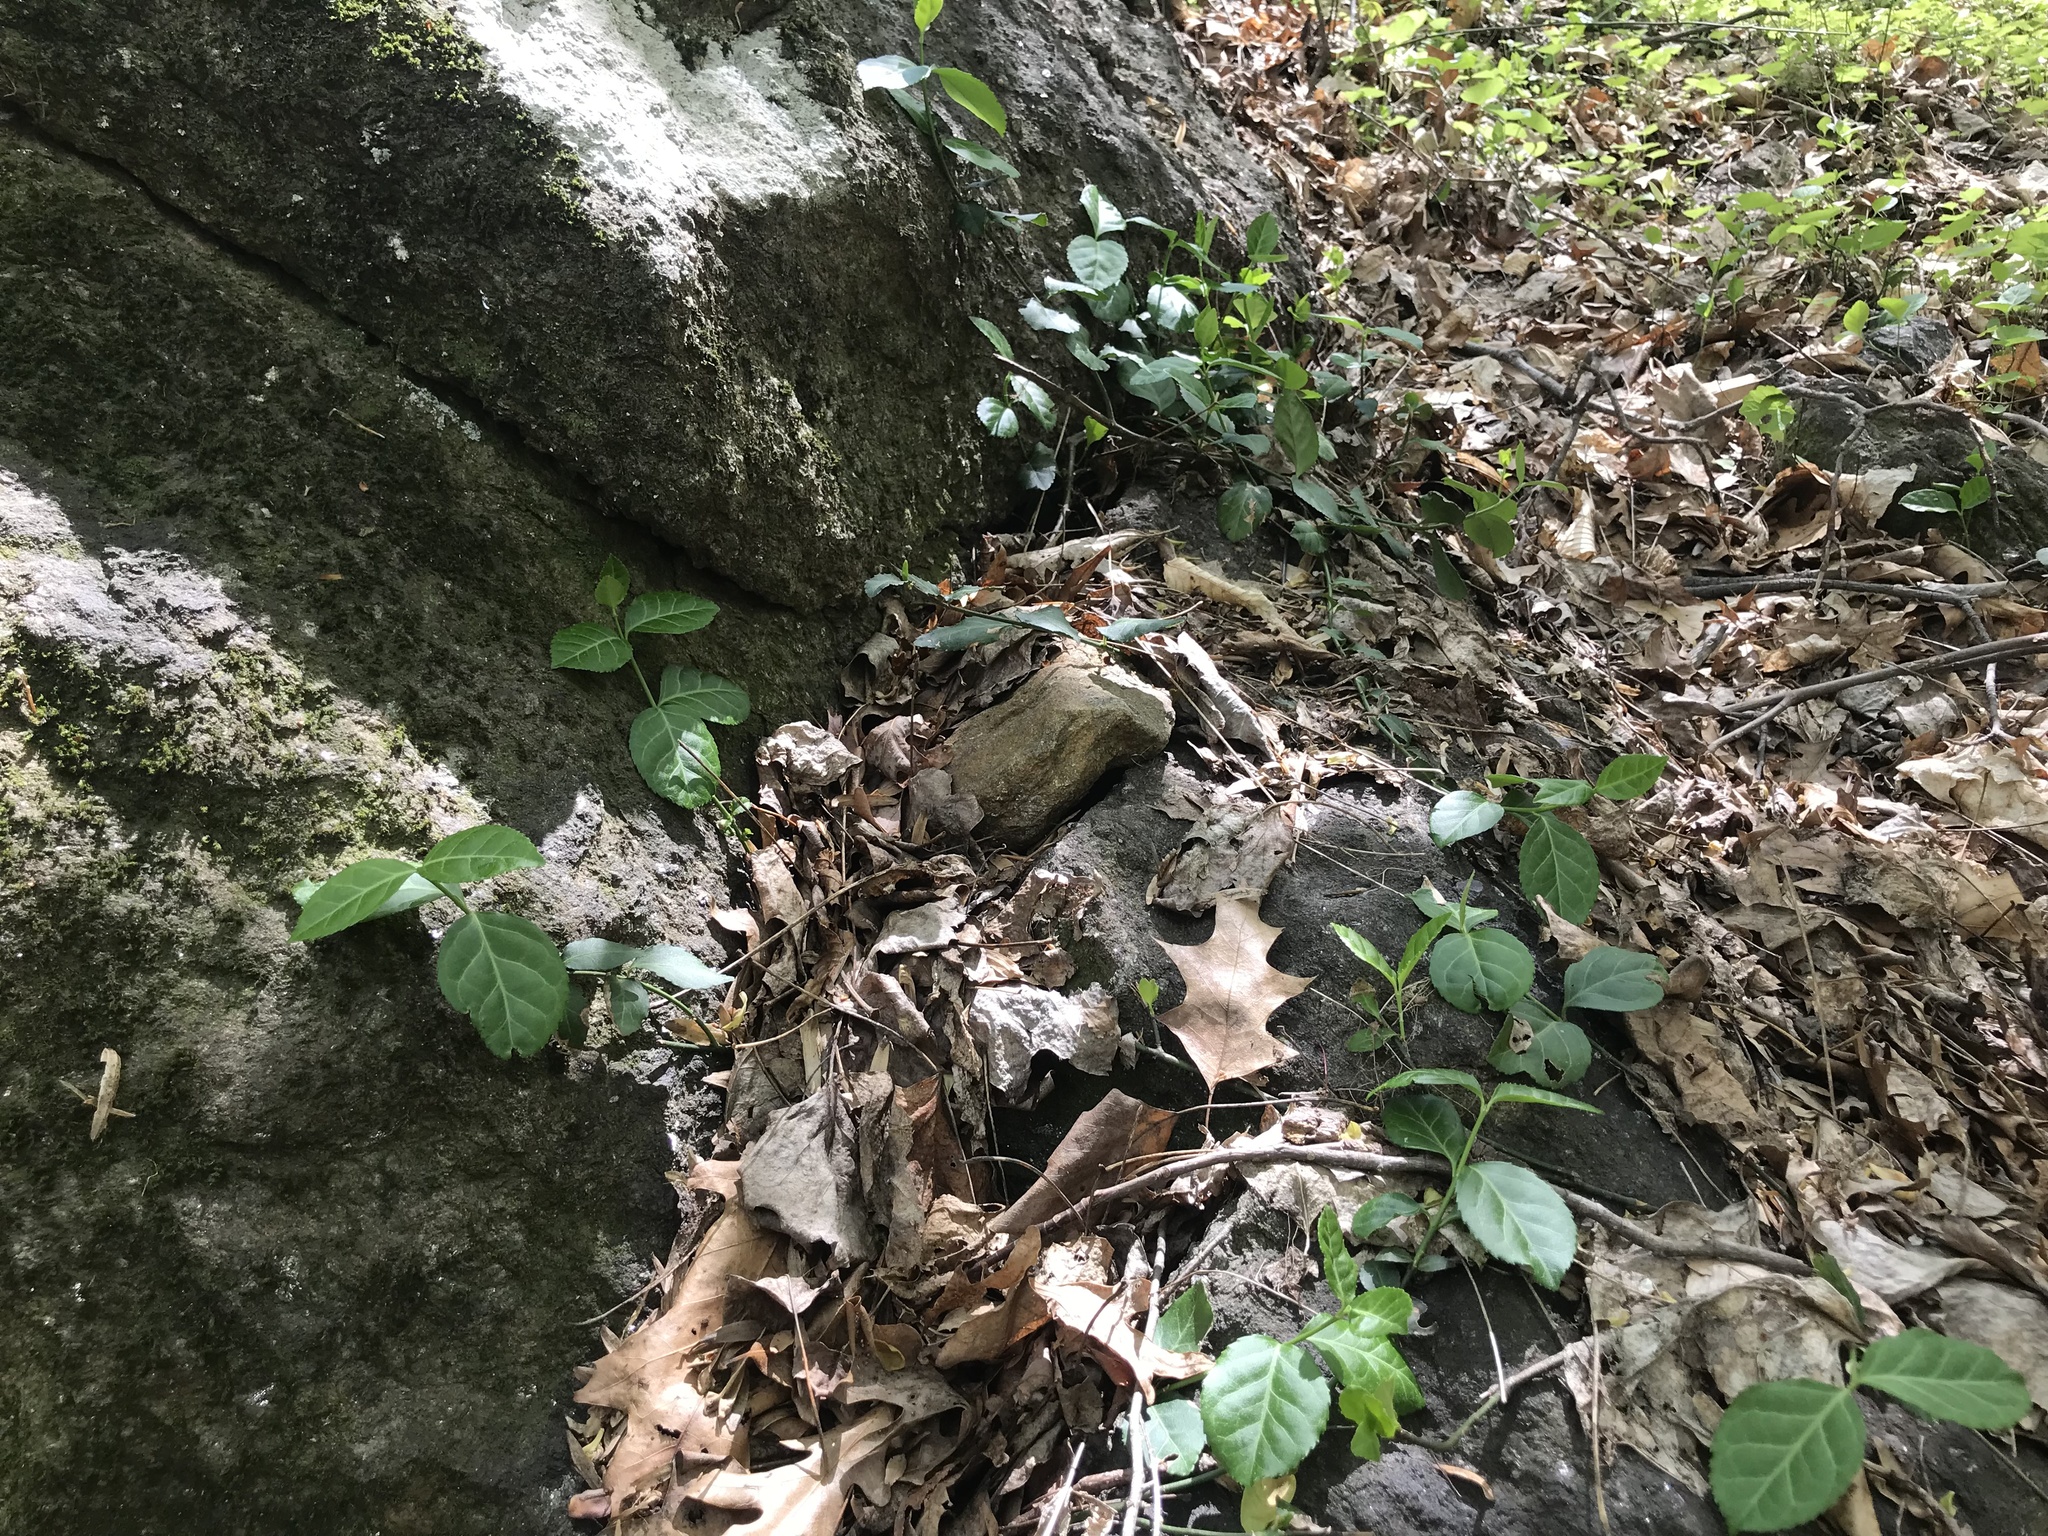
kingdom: Plantae
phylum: Tracheophyta
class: Magnoliopsida
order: Celastrales
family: Celastraceae
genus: Euonymus
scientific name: Euonymus fortunei
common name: Climbing euonymus
